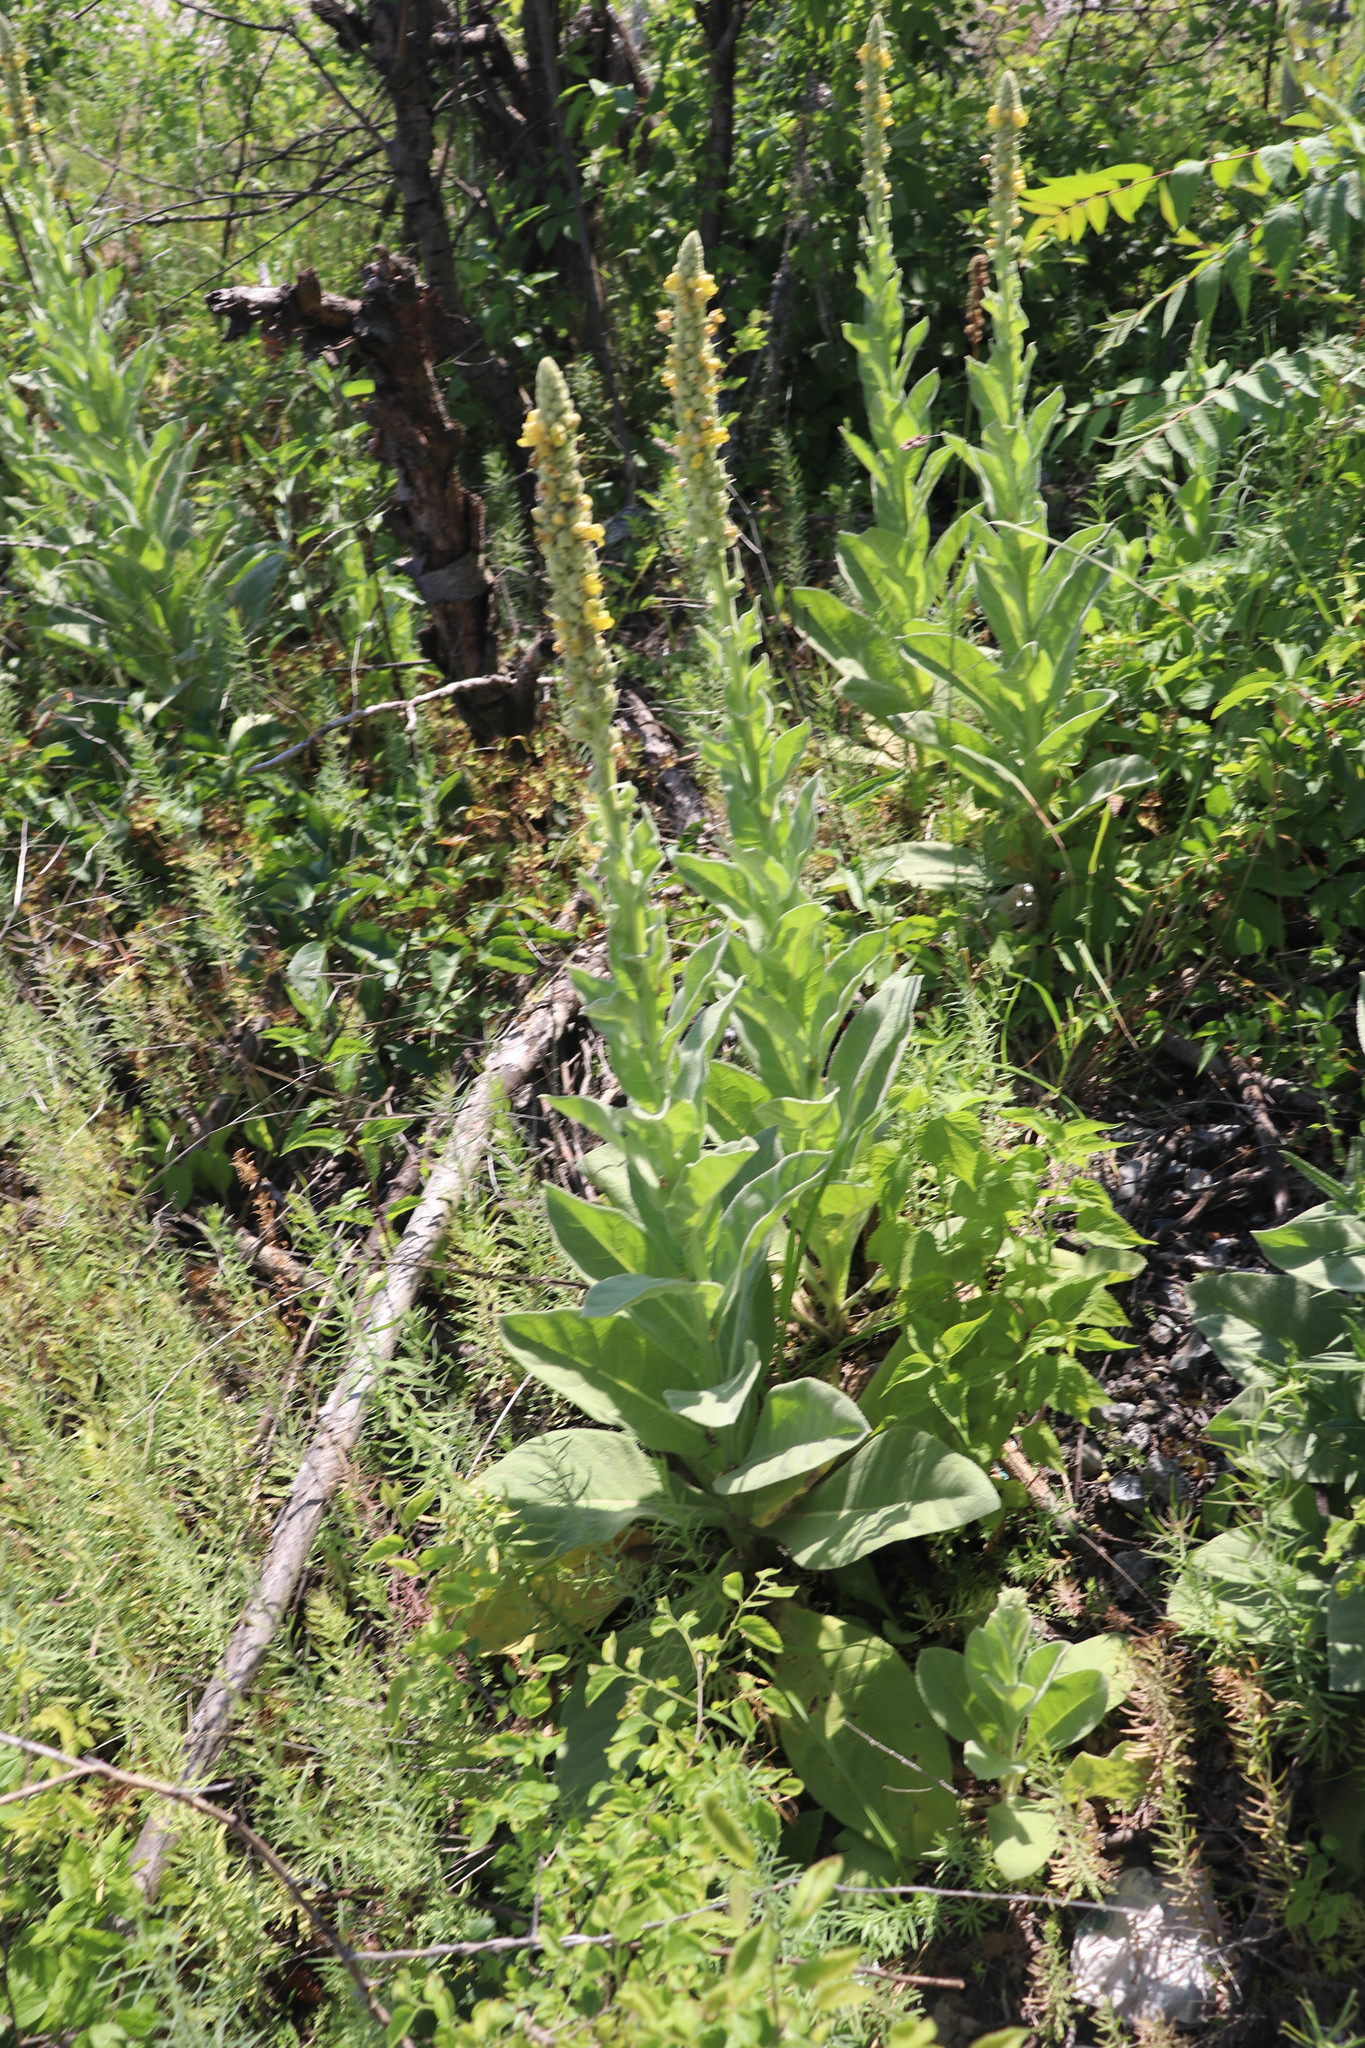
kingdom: Plantae
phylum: Tracheophyta
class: Magnoliopsida
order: Lamiales
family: Scrophulariaceae
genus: Verbascum
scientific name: Verbascum thapsus
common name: Common mullein
